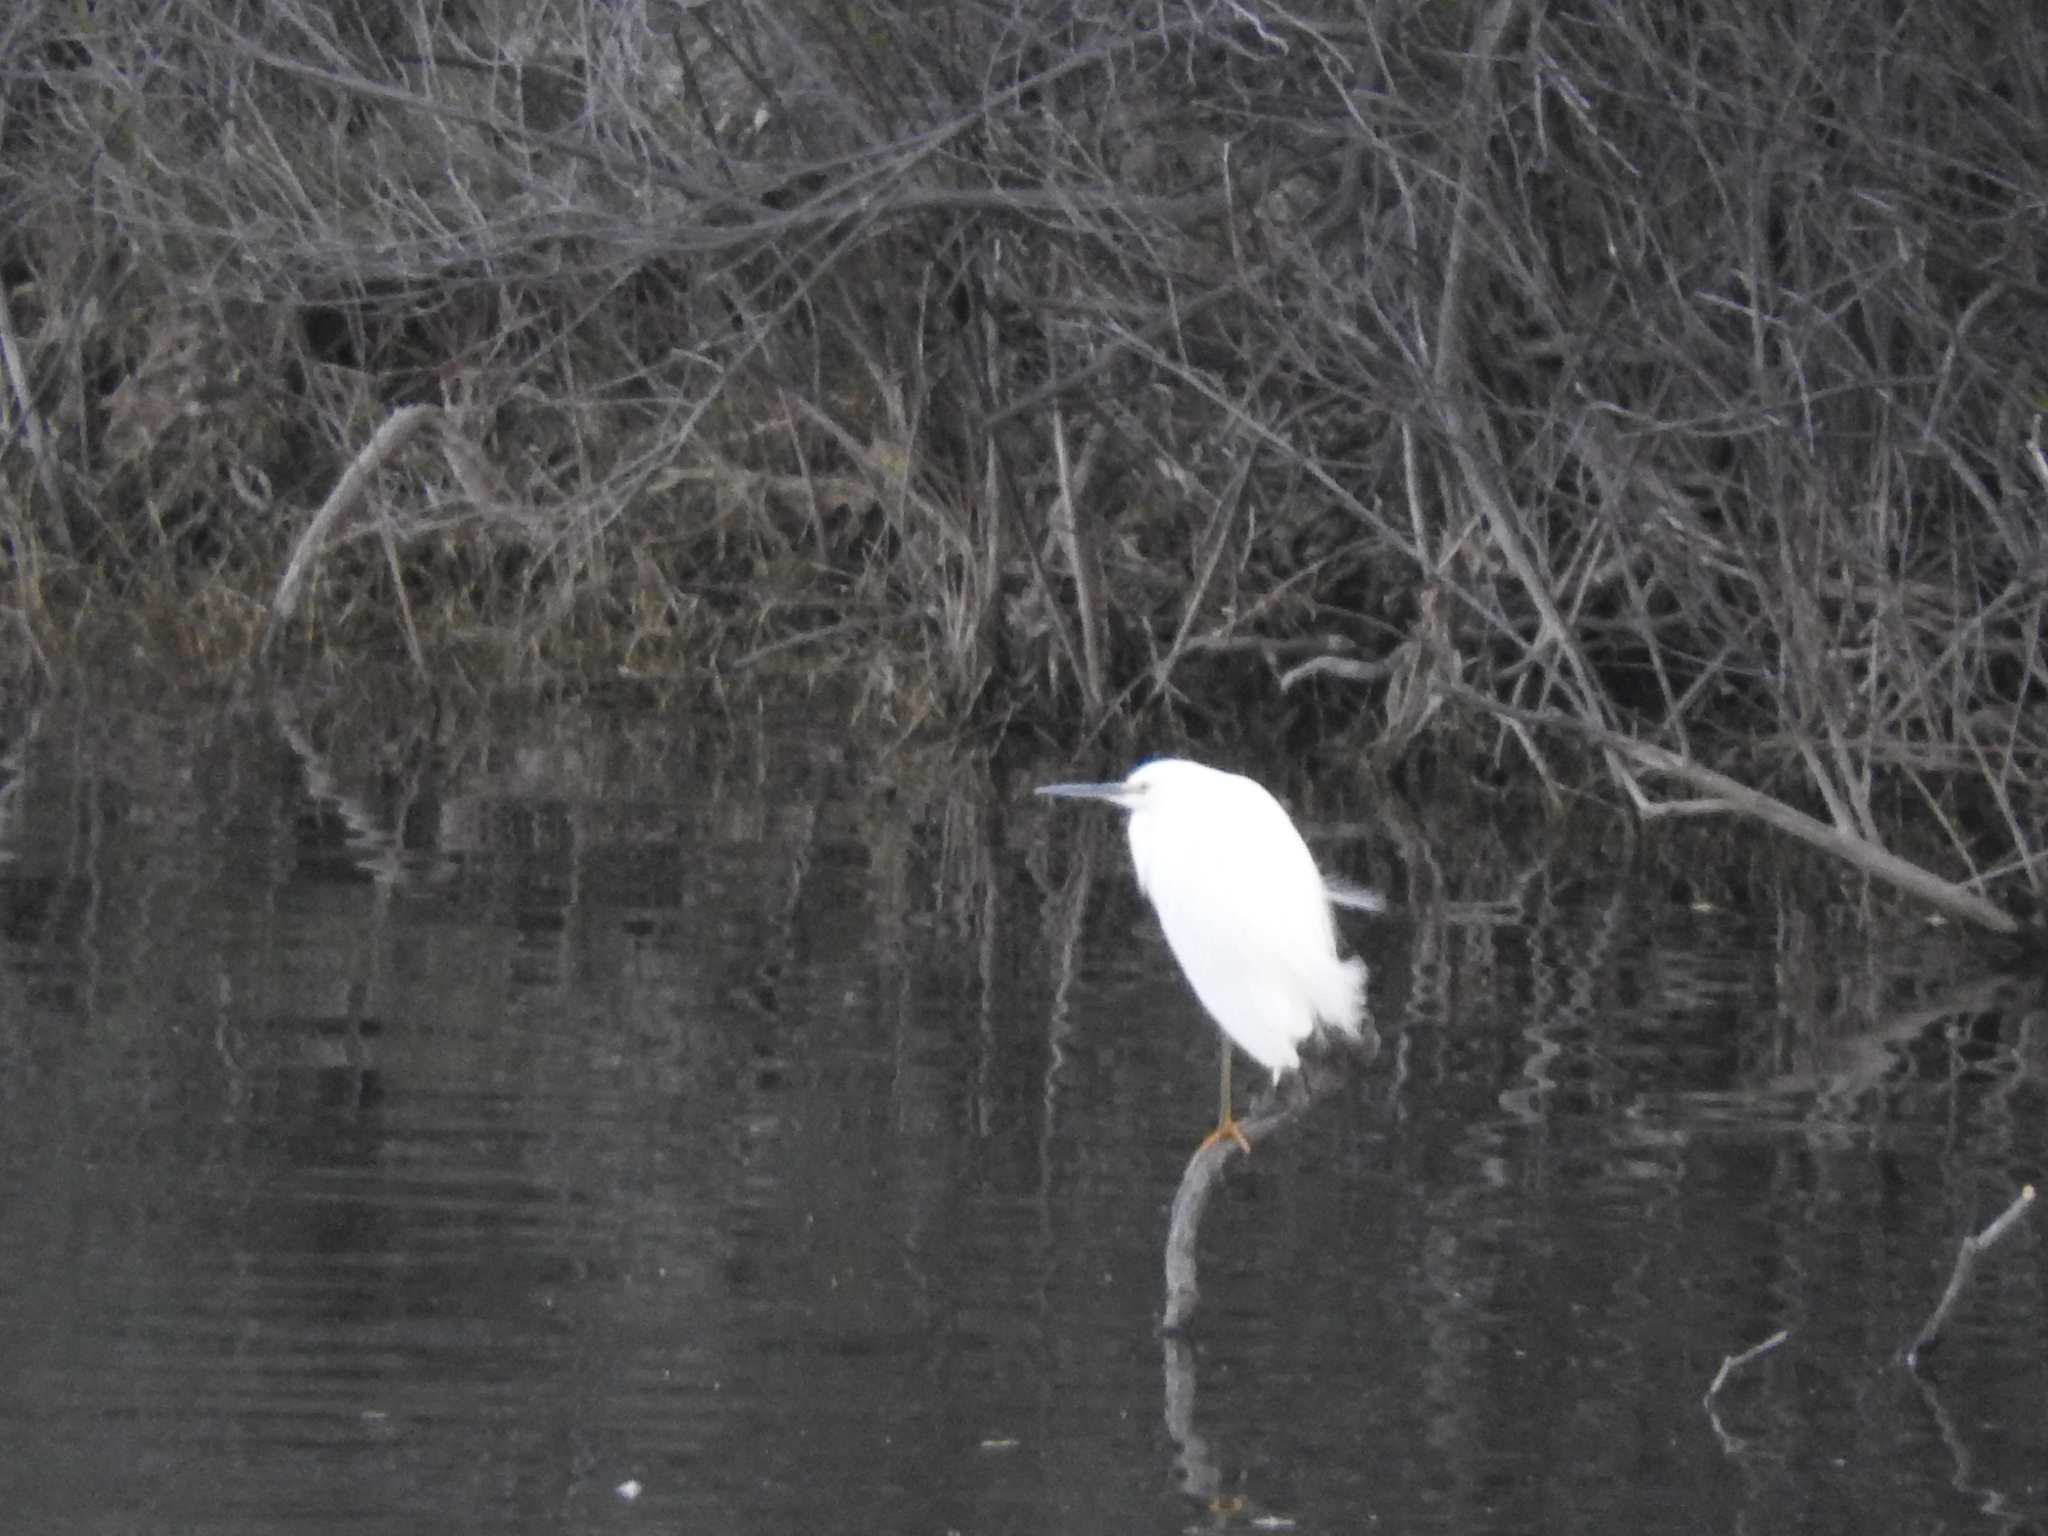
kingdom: Animalia
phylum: Chordata
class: Aves
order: Pelecaniformes
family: Ardeidae
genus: Egretta
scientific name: Egretta thula
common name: Snowy egret
